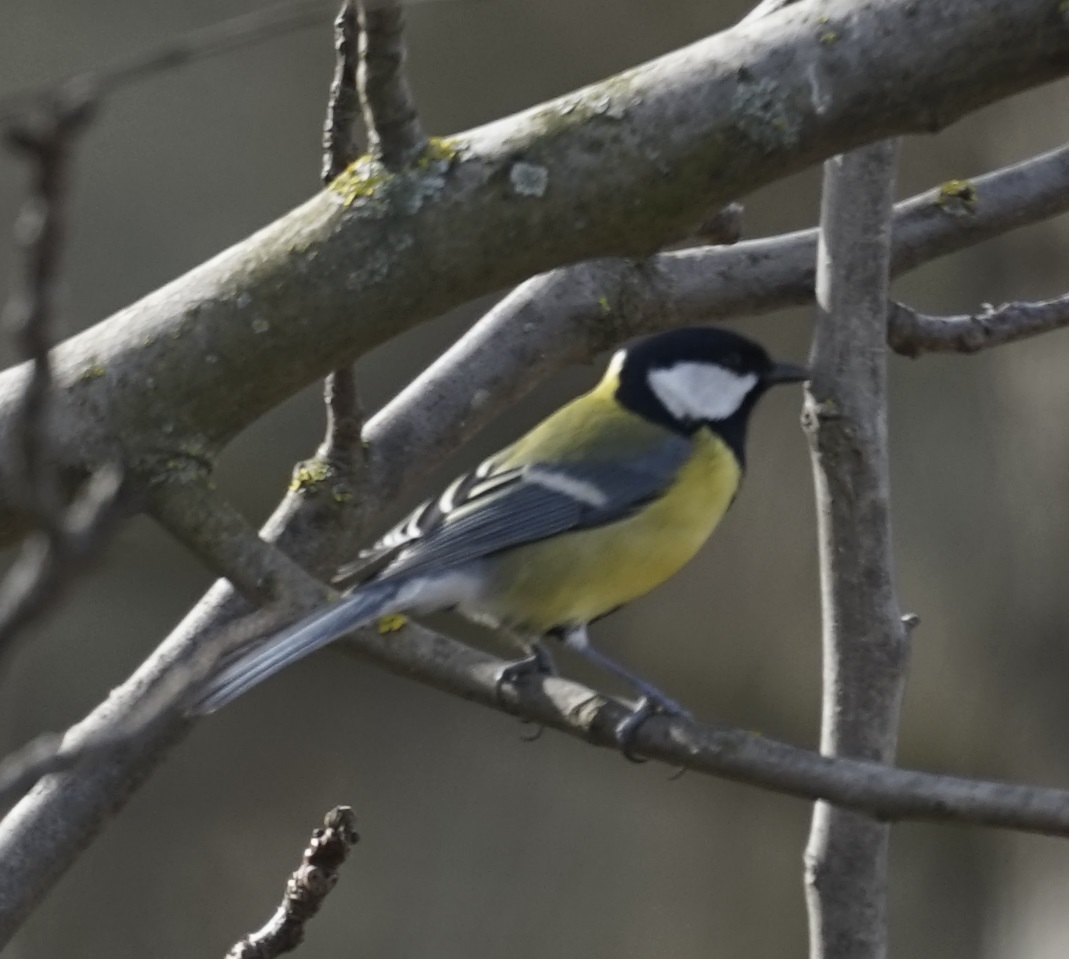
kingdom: Animalia
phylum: Chordata
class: Aves
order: Passeriformes
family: Paridae
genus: Parus
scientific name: Parus major
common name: Great tit
